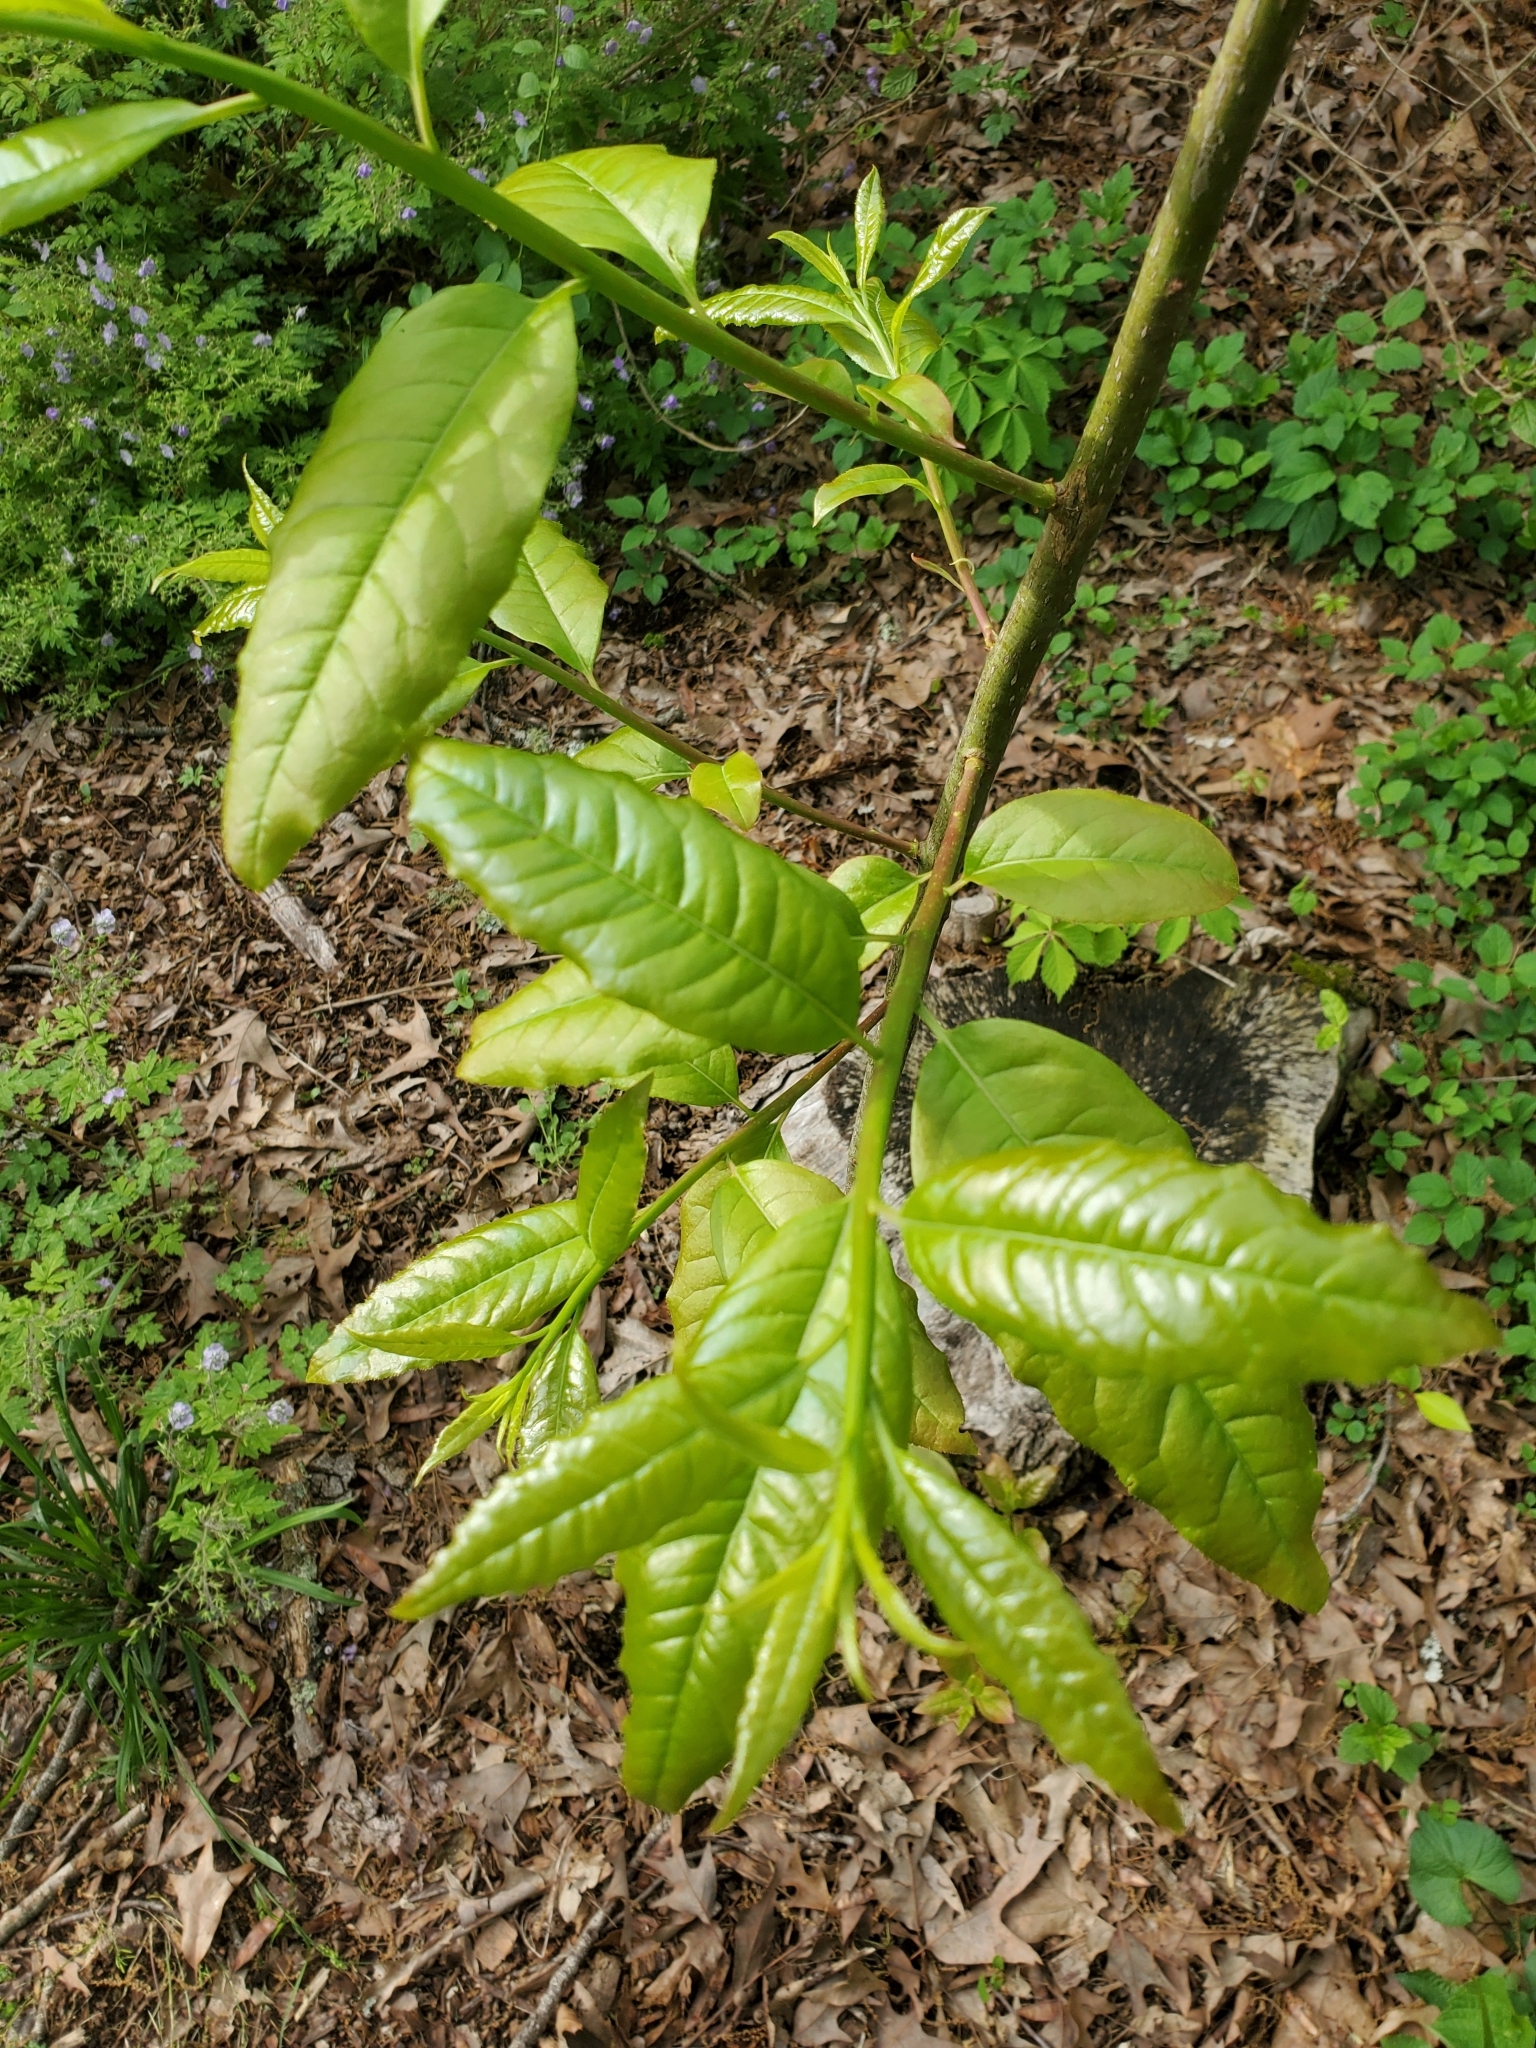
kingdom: Plantae
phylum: Tracheophyta
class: Magnoliopsida
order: Ericales
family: Ericaceae
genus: Oxydendrum
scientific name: Oxydendrum arboreum
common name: Sourwood
